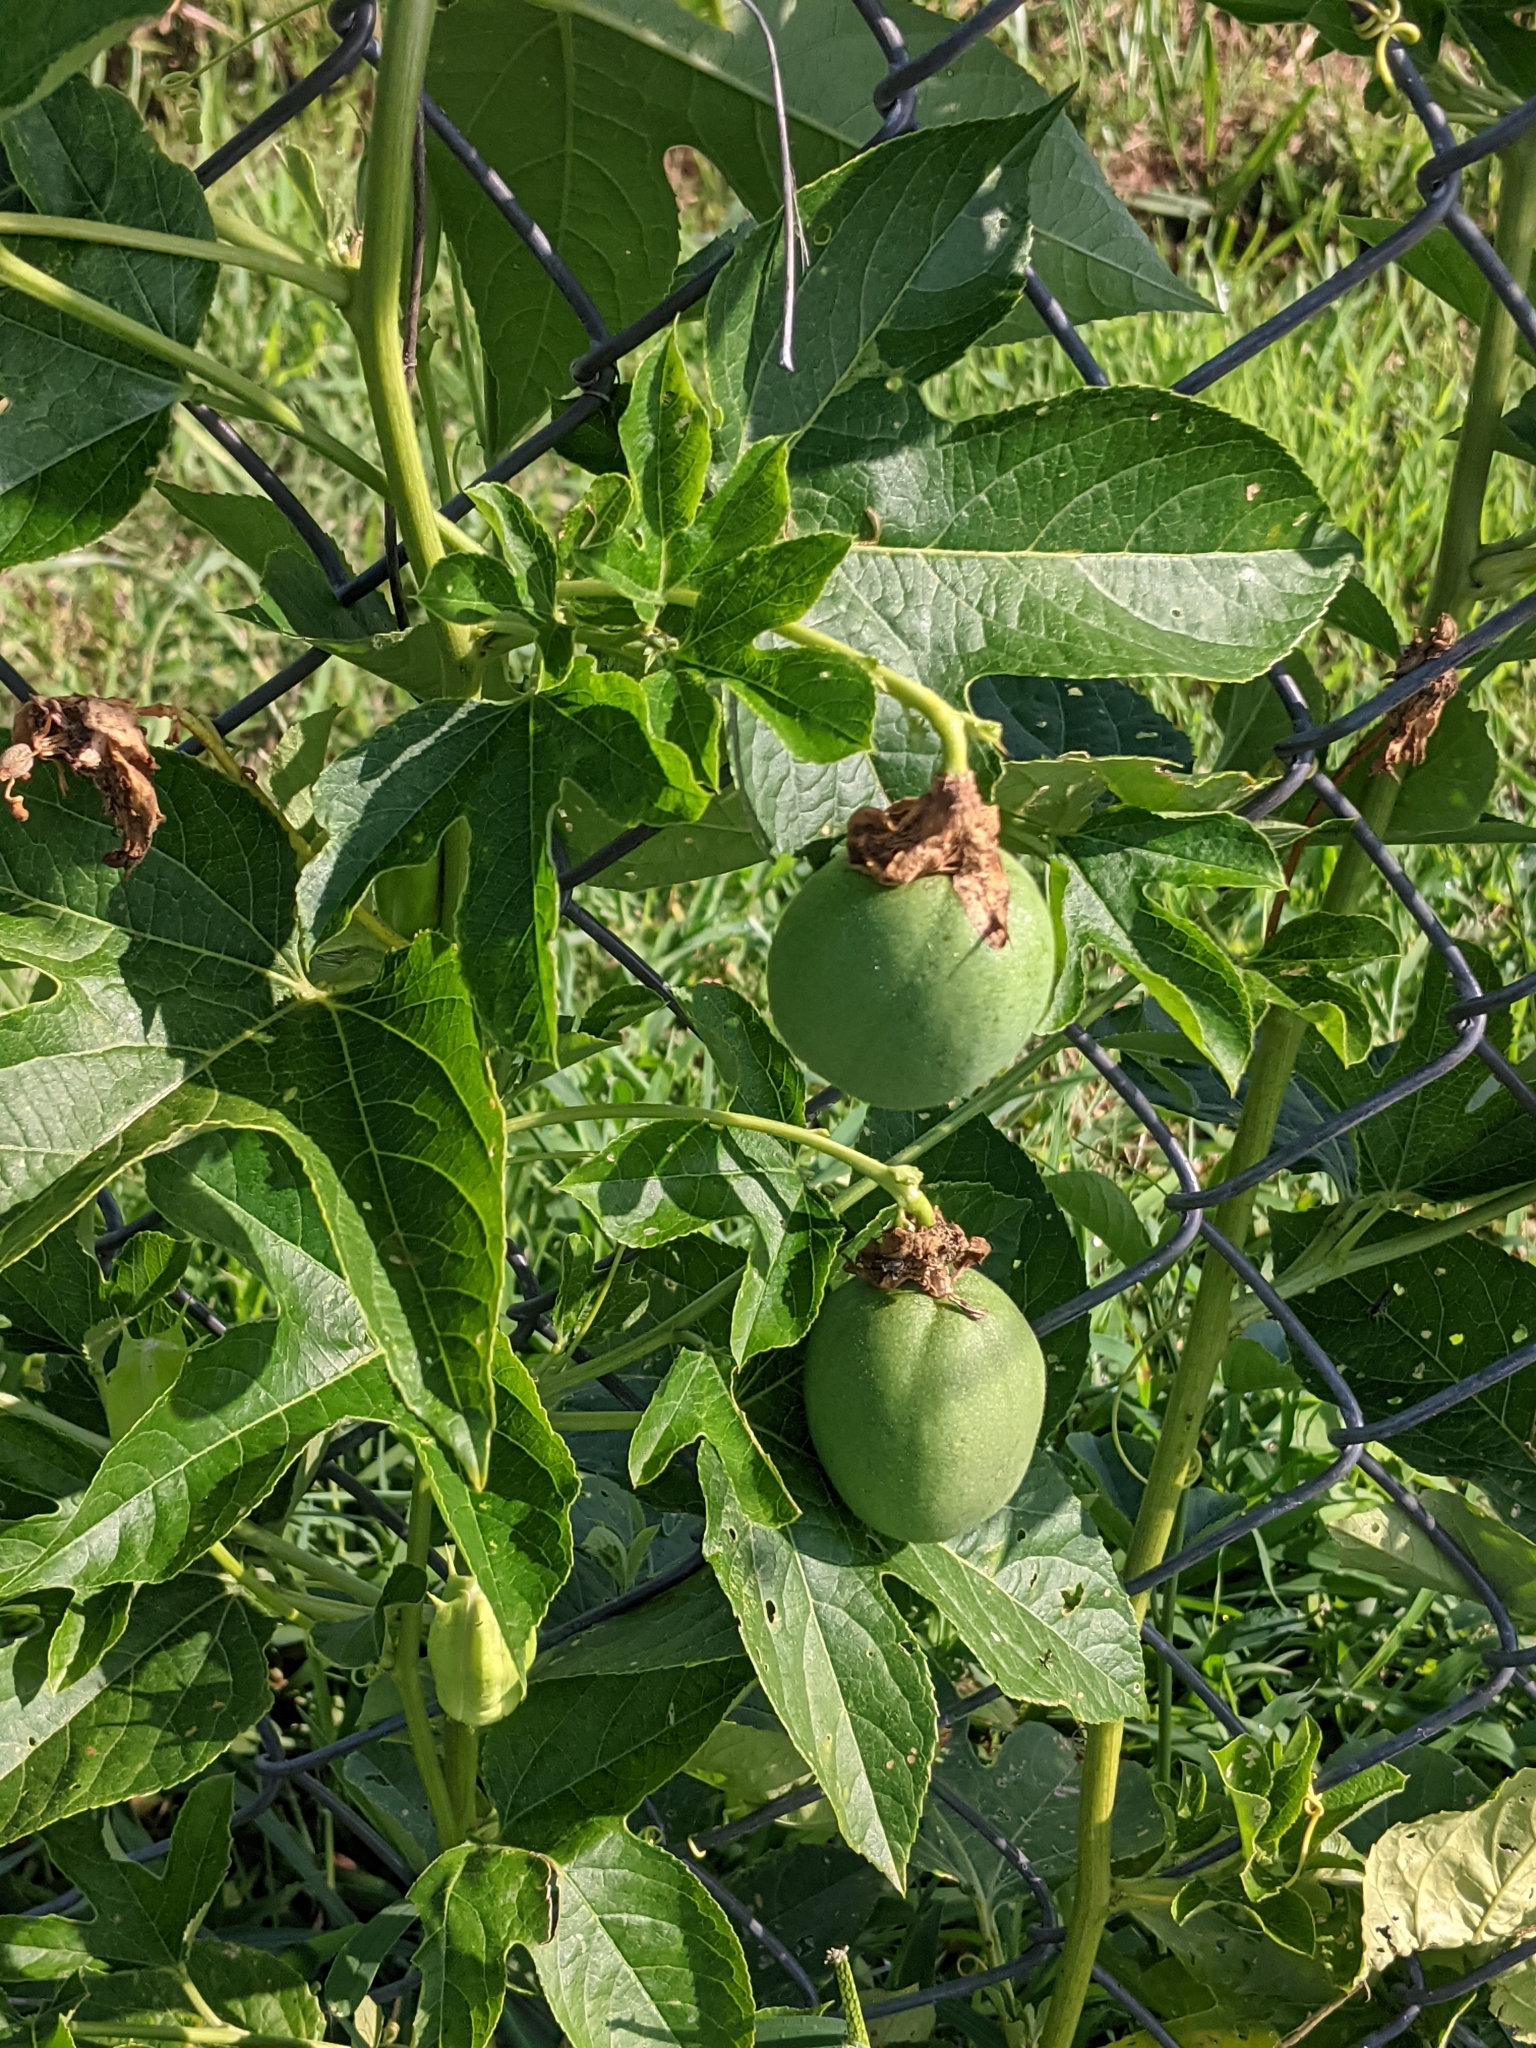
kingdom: Plantae
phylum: Tracheophyta
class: Magnoliopsida
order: Malpighiales
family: Passifloraceae
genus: Passiflora
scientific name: Passiflora incarnata
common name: Apricot-vine
